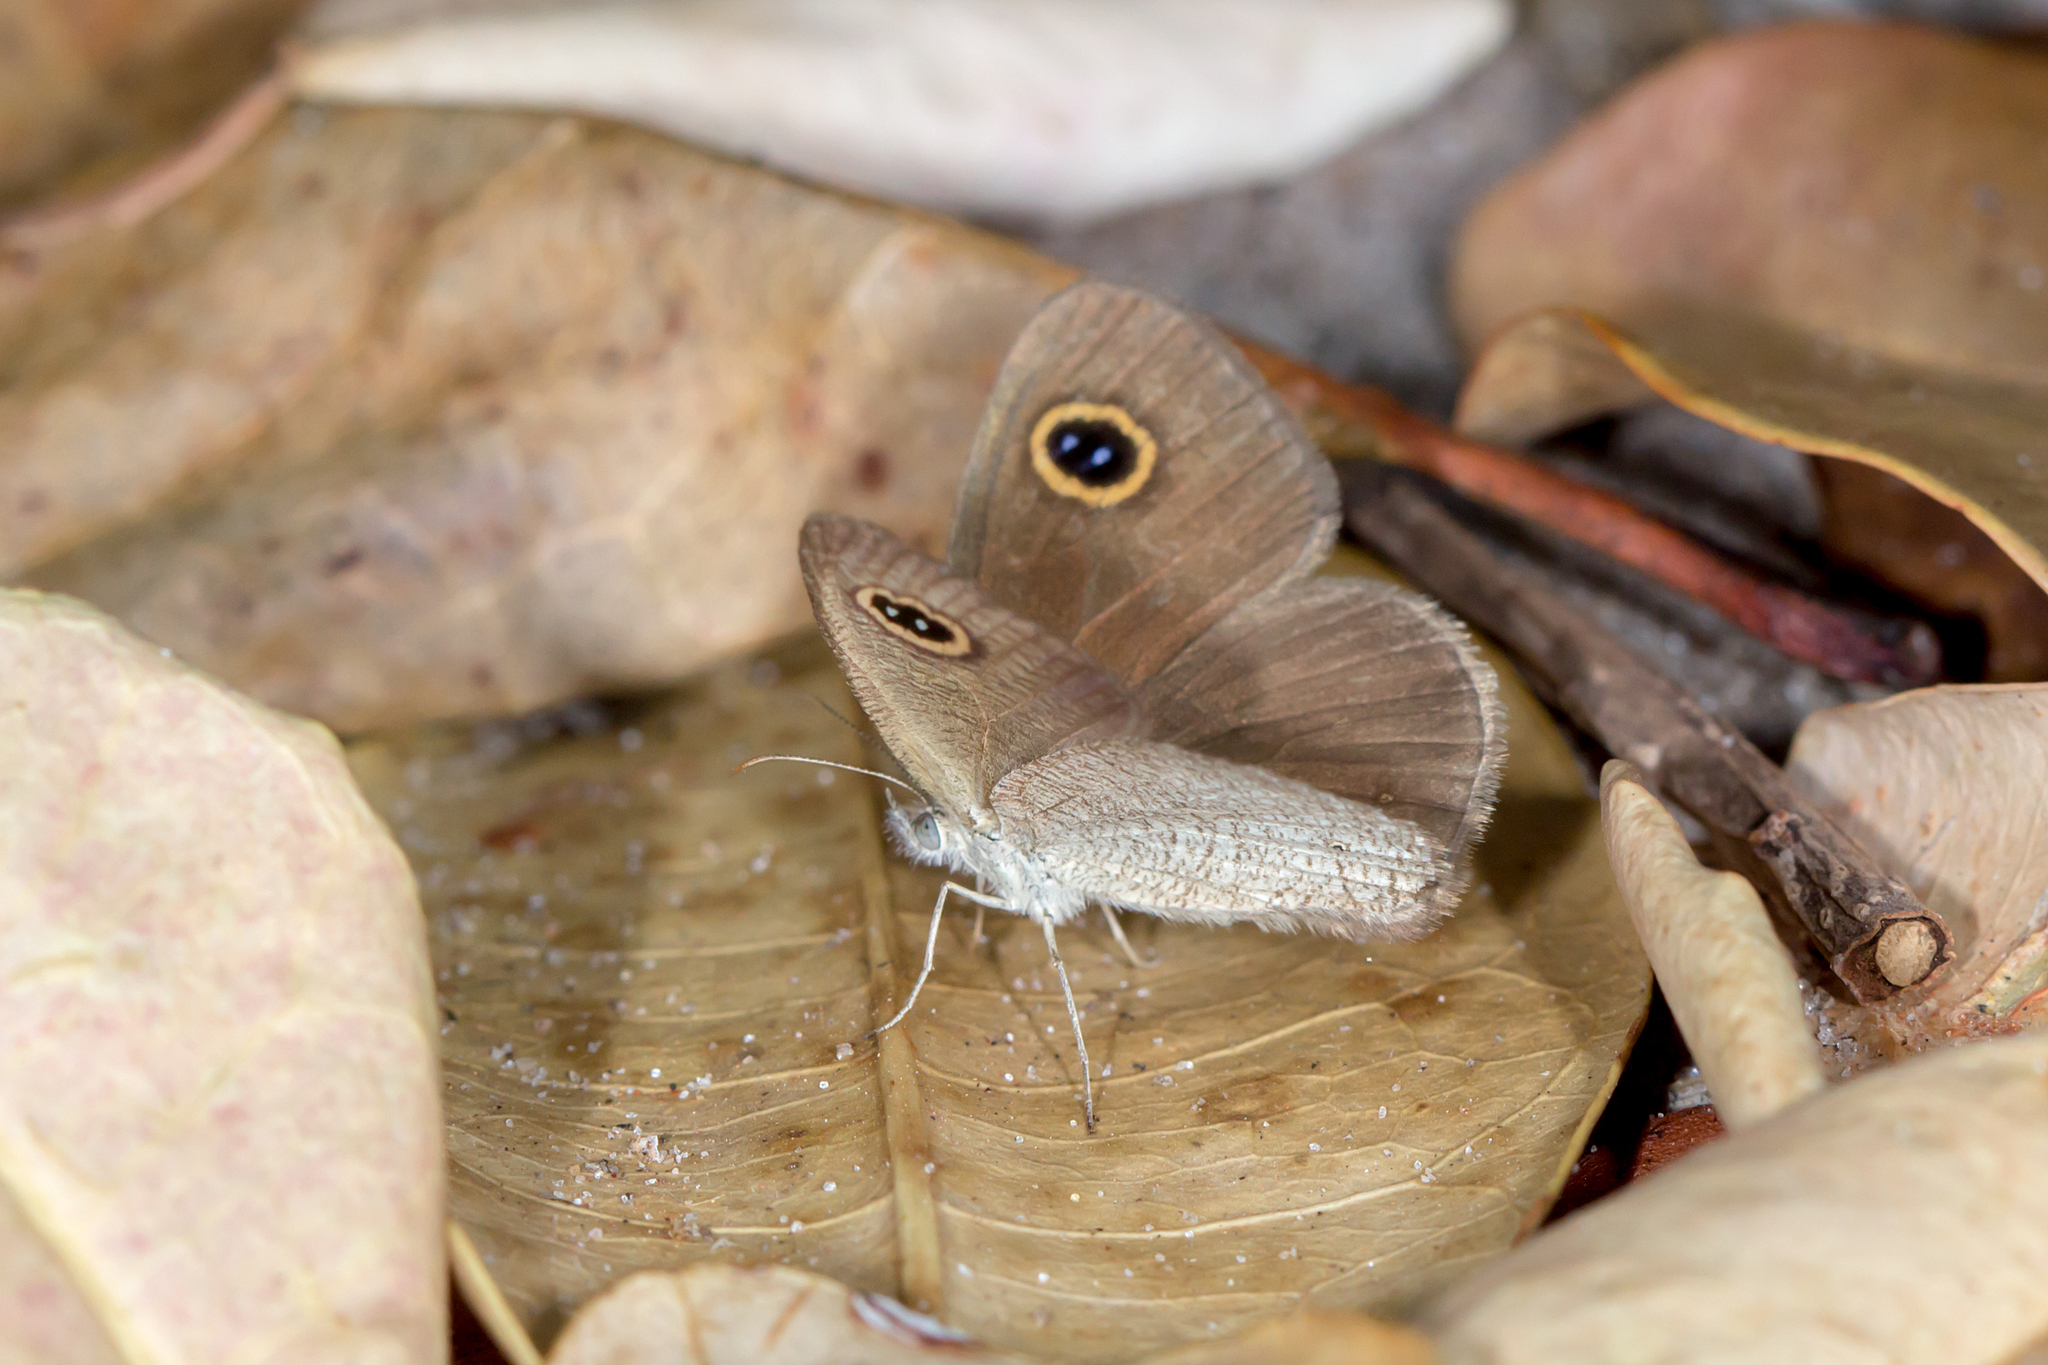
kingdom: Animalia
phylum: Arthropoda
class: Insecta
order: Lepidoptera
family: Nymphalidae
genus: Ypthima
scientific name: Ypthima arctous
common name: Dusky knight
